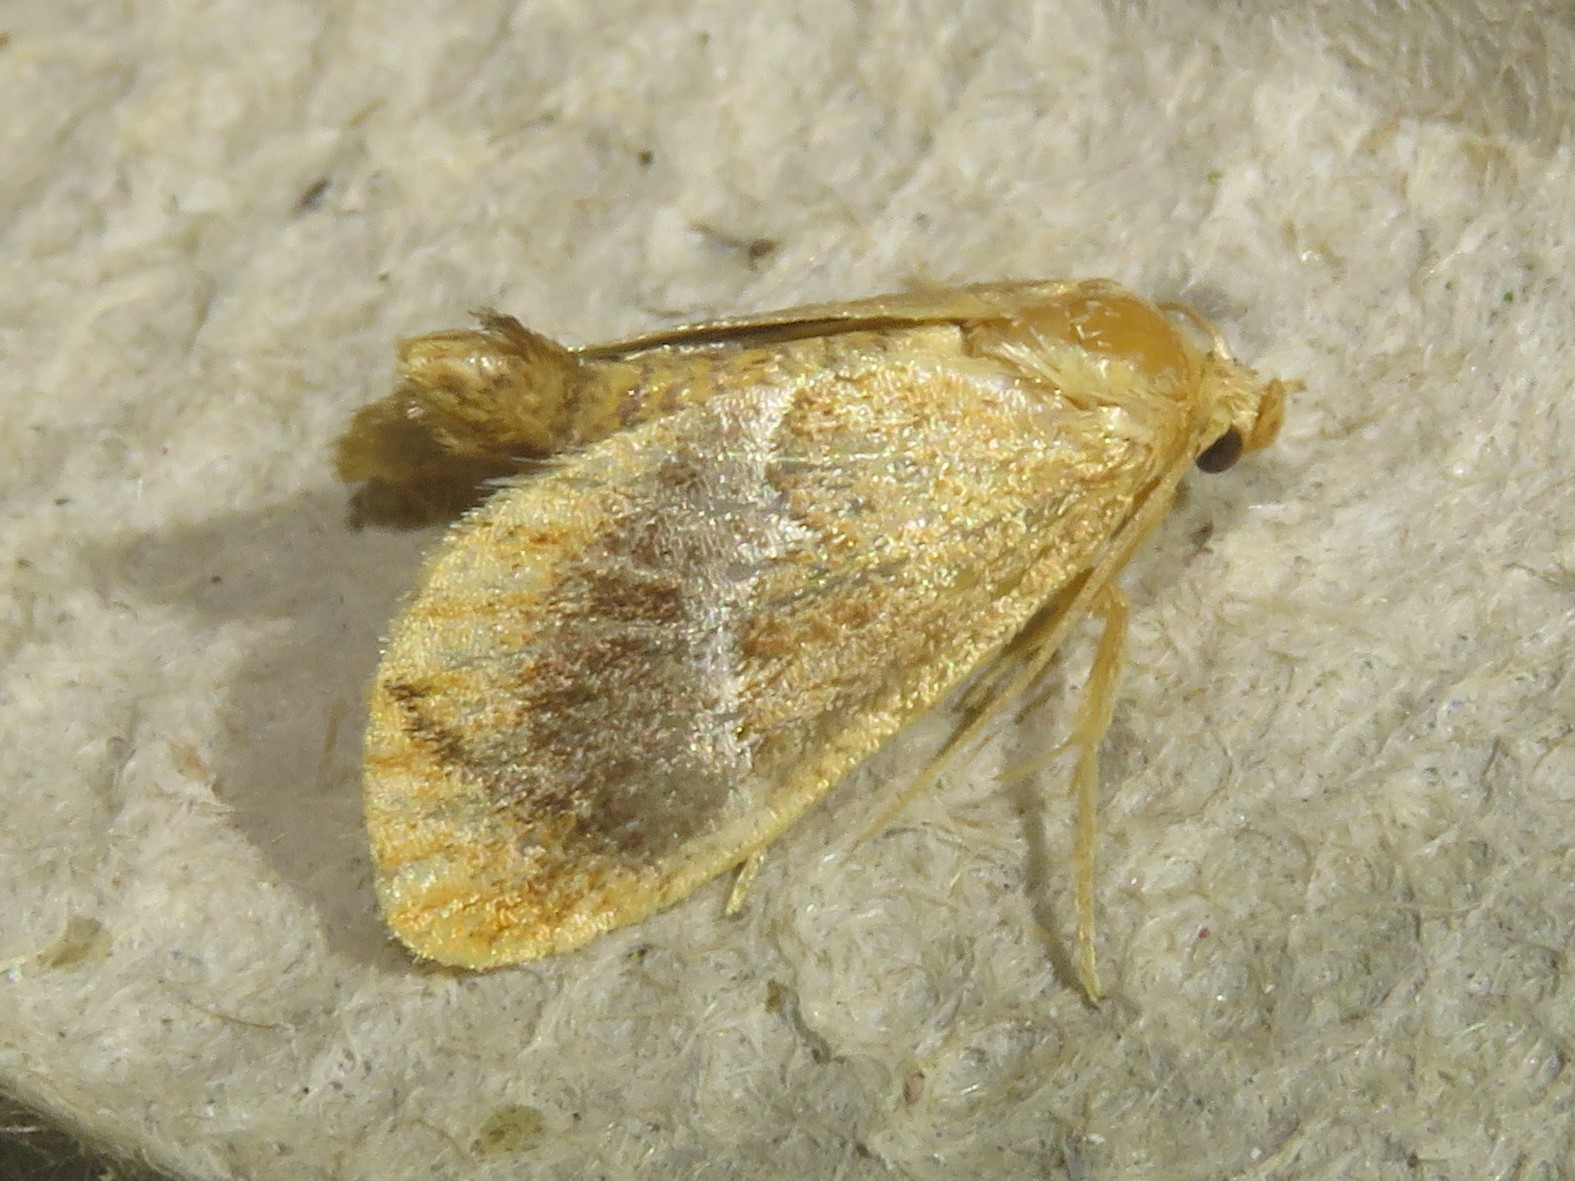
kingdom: Animalia
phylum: Arthropoda
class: Insecta
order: Lepidoptera
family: Limacodidae
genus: Lithacodes
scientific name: Lithacodes fasciola
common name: Yellow-shouldered slug moth
